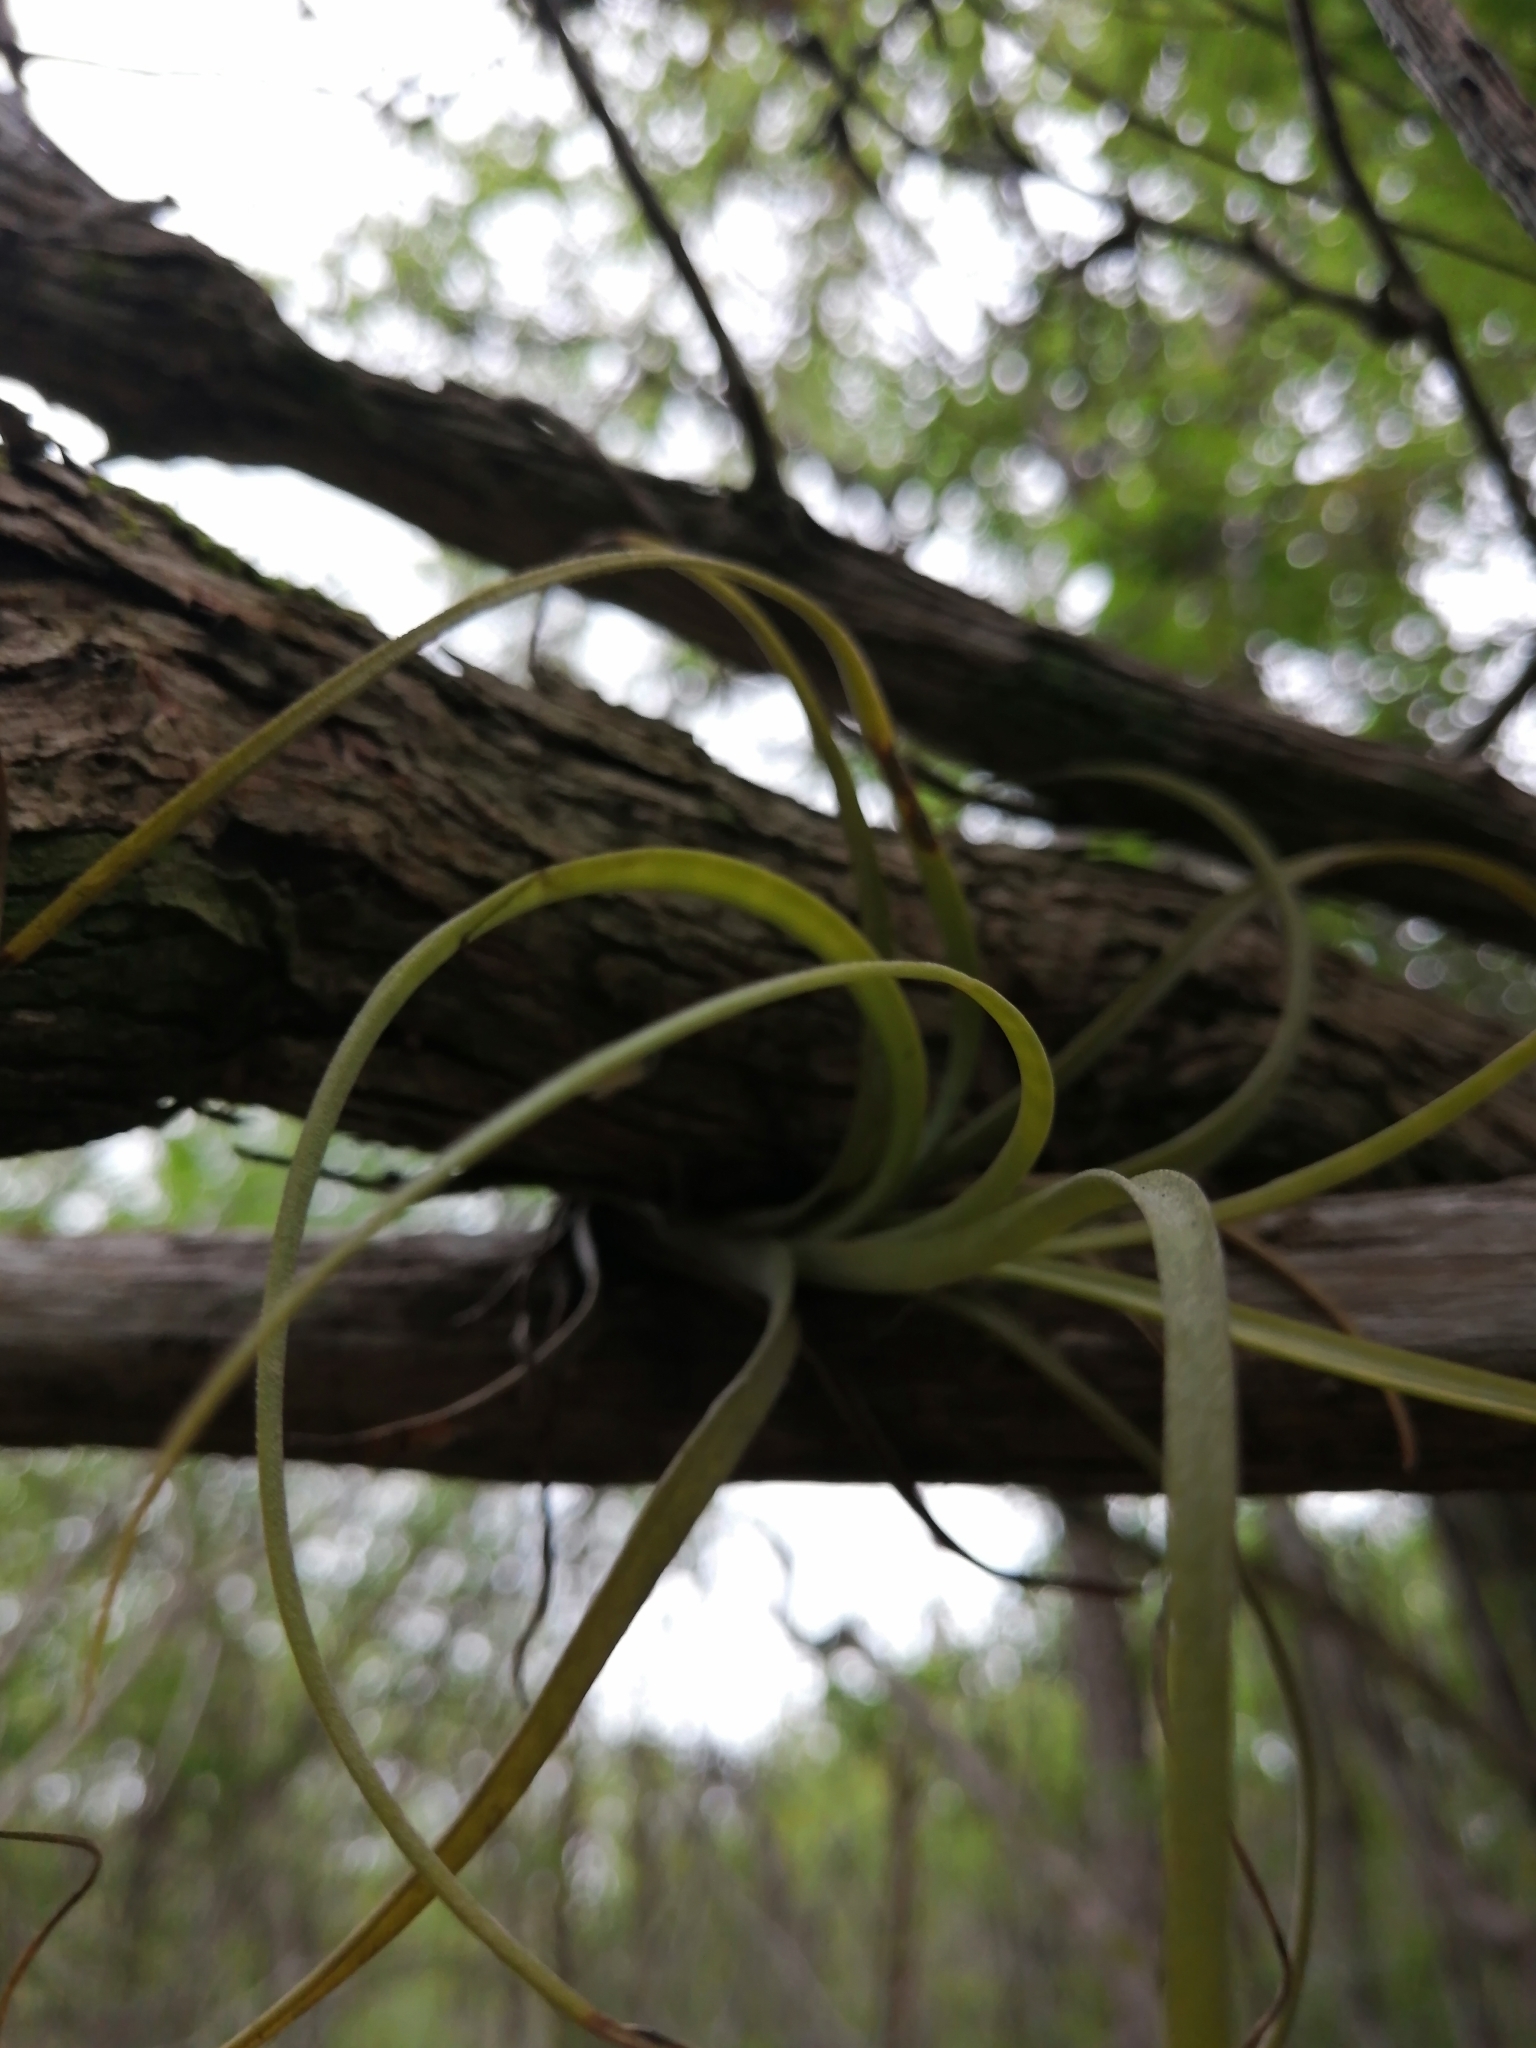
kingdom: Plantae
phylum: Tracheophyta
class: Liliopsida
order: Poales
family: Bromeliaceae
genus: Tillandsia
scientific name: Tillandsia balbisiana
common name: Northern needleleaf
